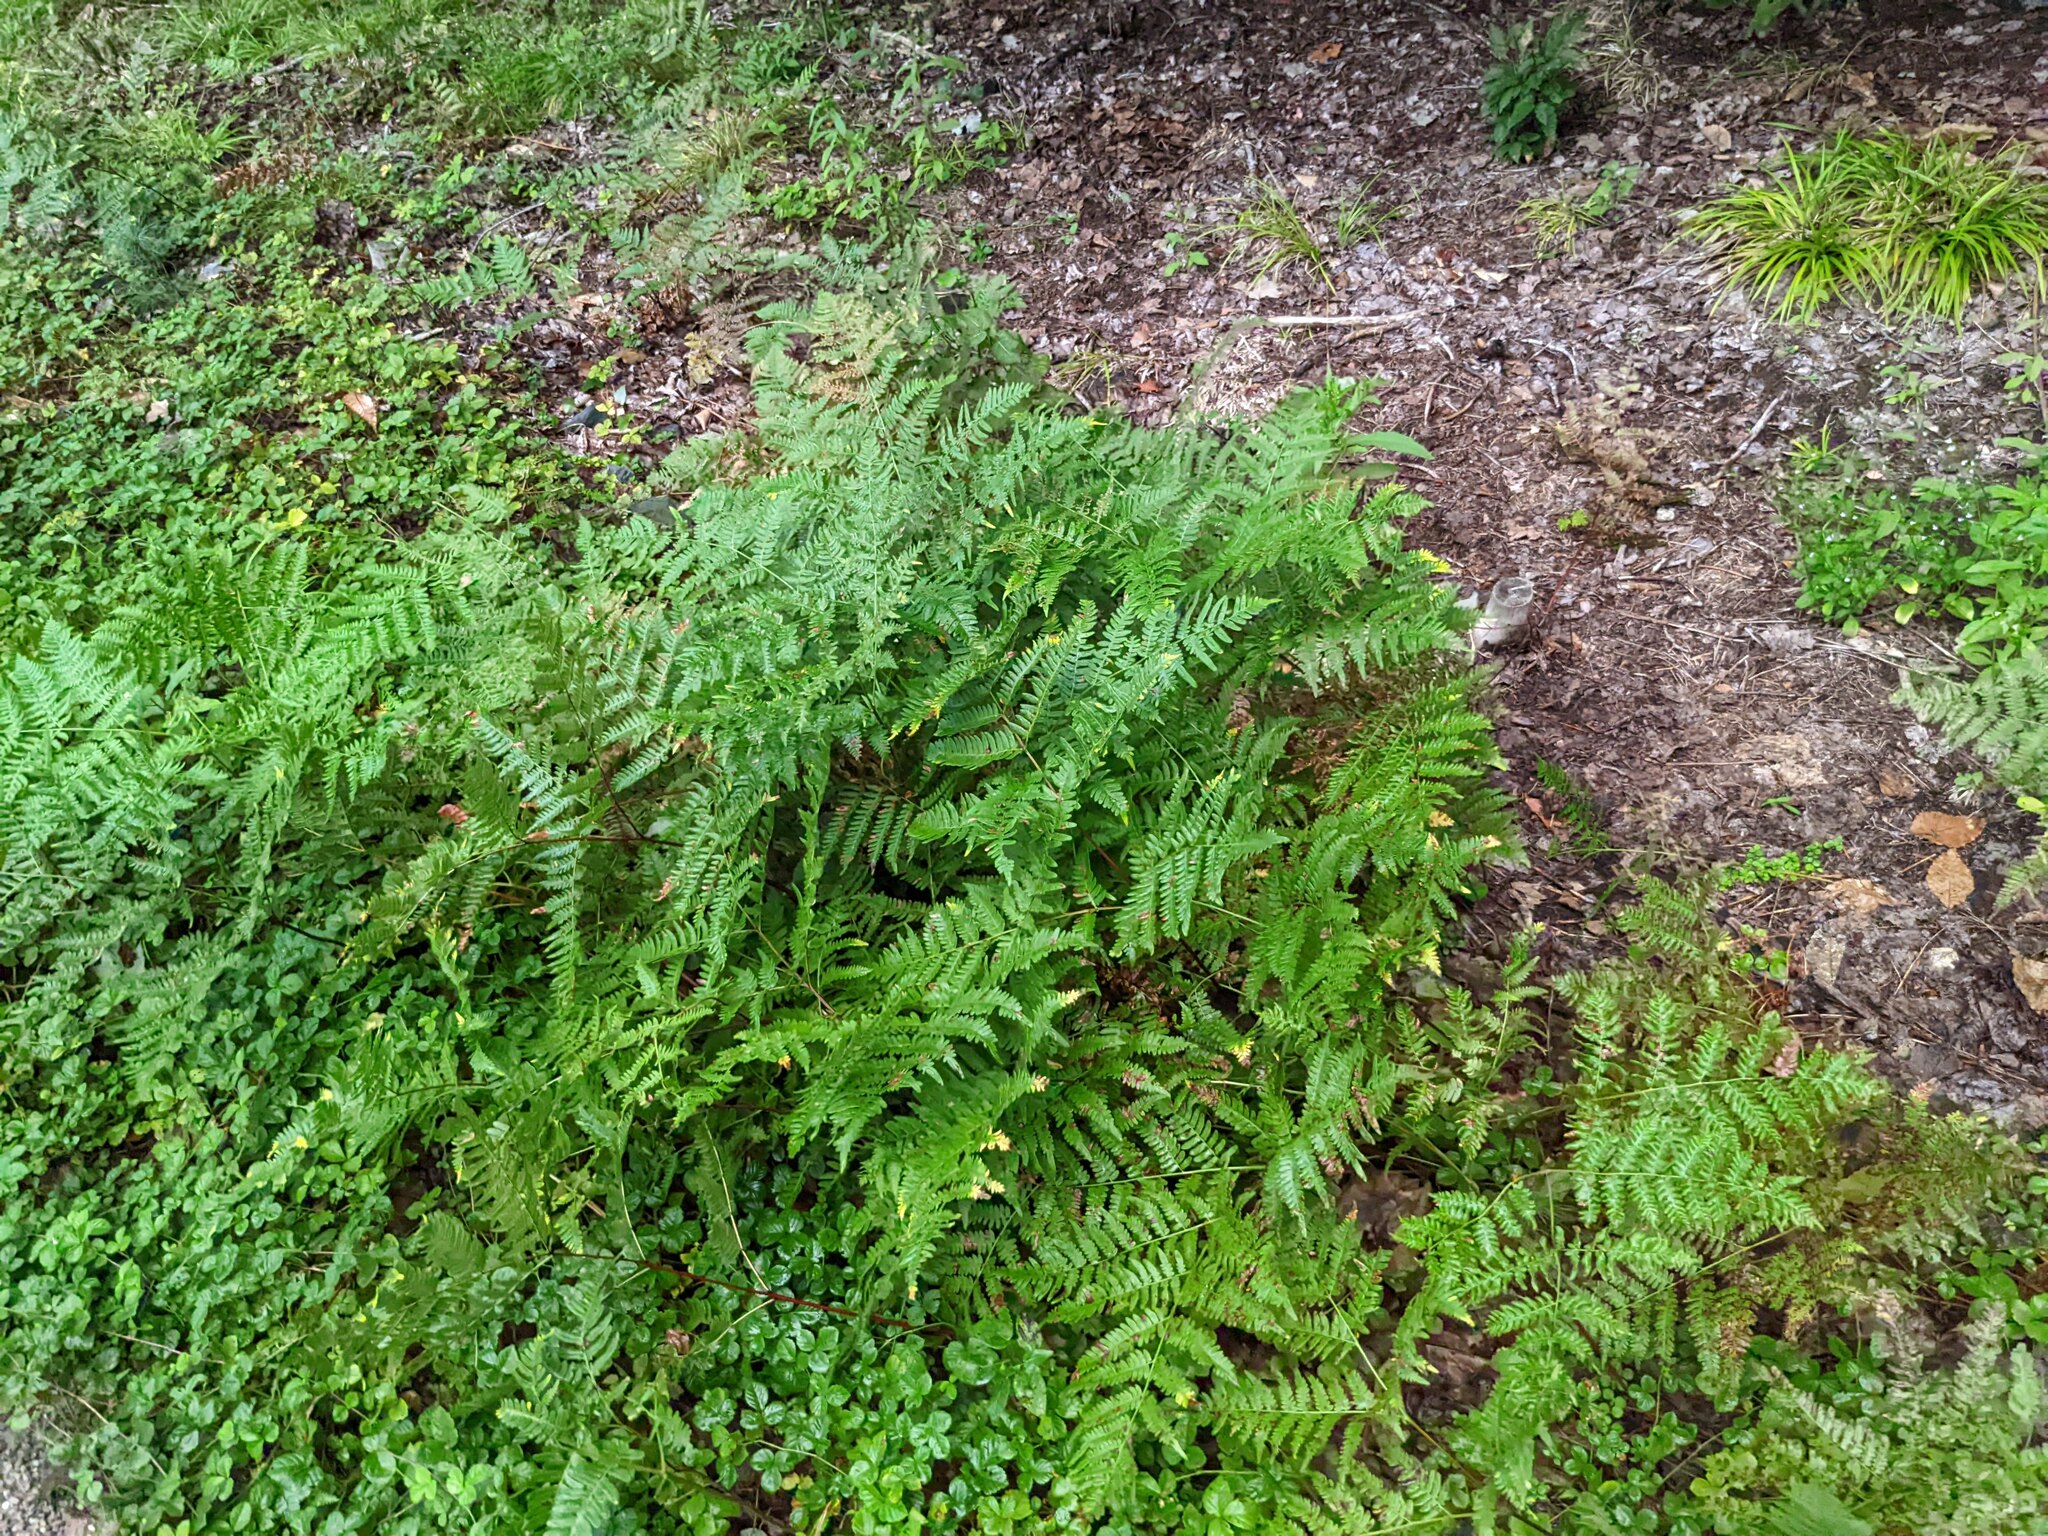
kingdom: Plantae
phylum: Tracheophyta
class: Polypodiopsida
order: Polypodiales
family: Dennstaedtiaceae
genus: Pteridium
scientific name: Pteridium aquilinum
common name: Bracken
